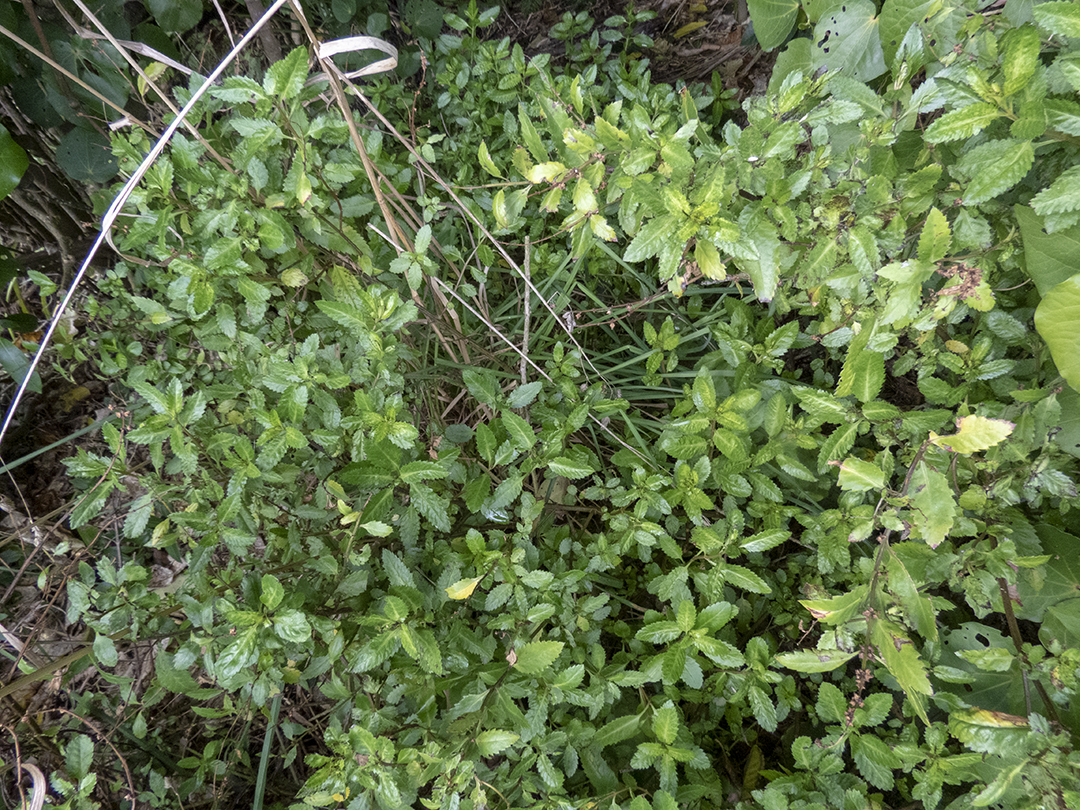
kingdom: Plantae
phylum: Tracheophyta
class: Magnoliopsida
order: Saxifragales
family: Haloragaceae
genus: Haloragis
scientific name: Haloragis erecta
